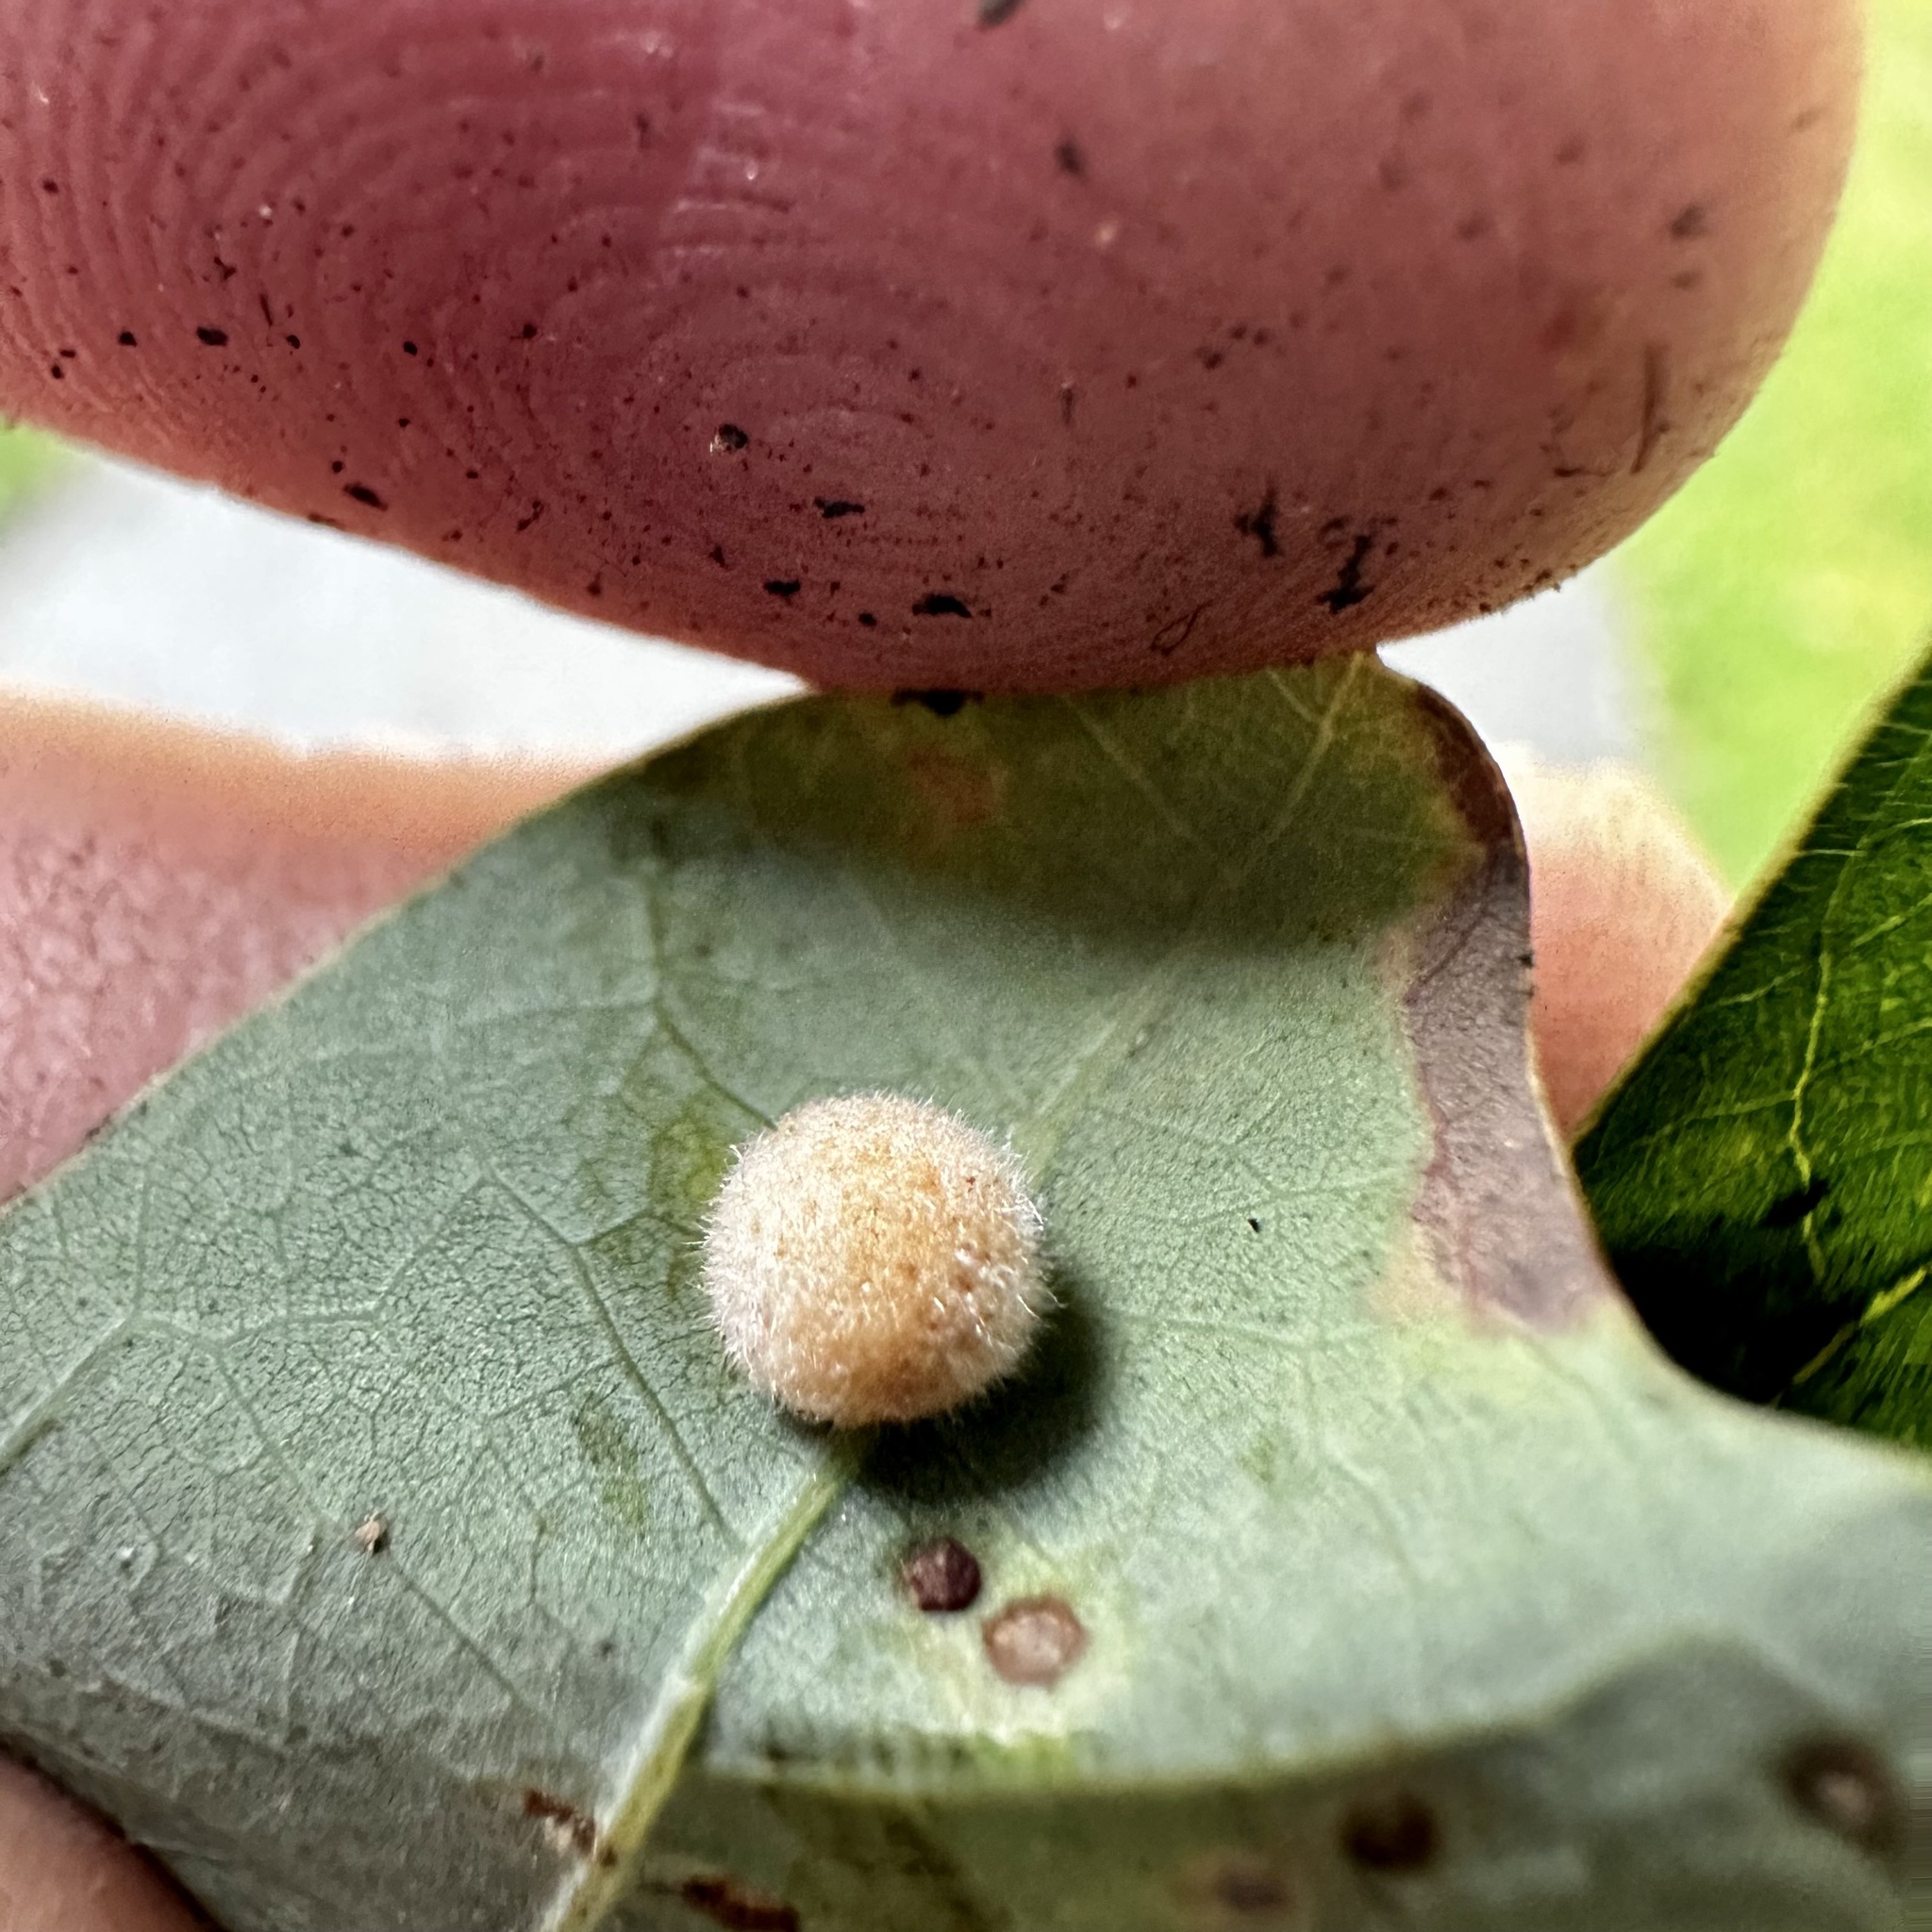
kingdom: Animalia
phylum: Arthropoda
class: Insecta
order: Hymenoptera
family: Cynipidae
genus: Philonix
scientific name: Philonix fulvicollis
